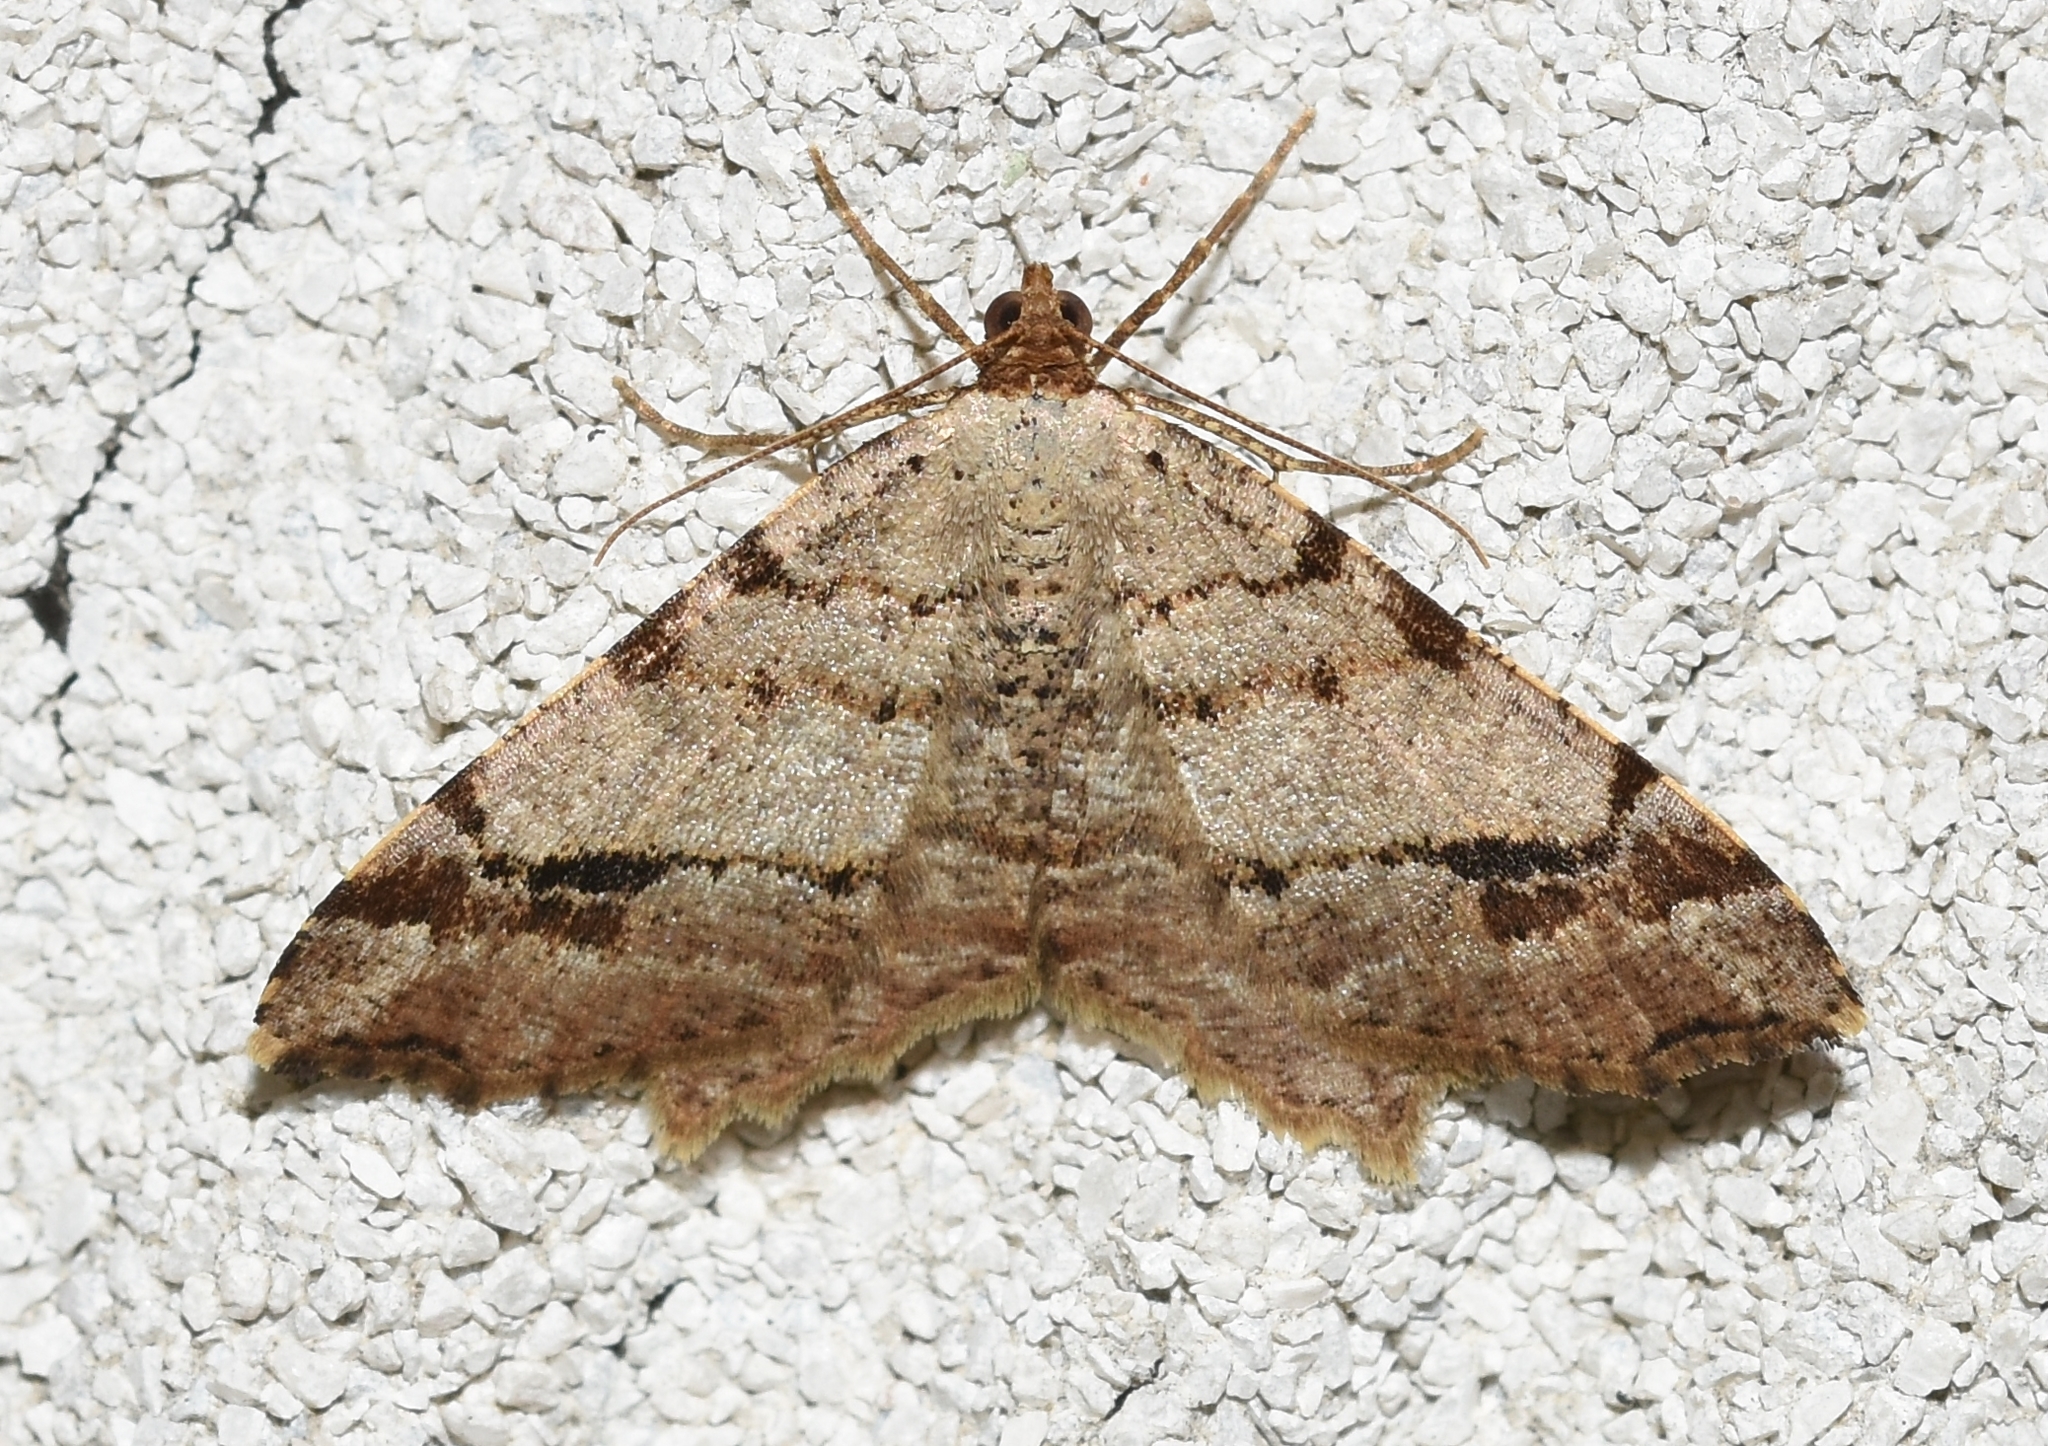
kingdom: Animalia
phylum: Arthropoda
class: Insecta
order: Lepidoptera
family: Geometridae
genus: Macaria
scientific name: Macaria aequiferaria
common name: Common angle
